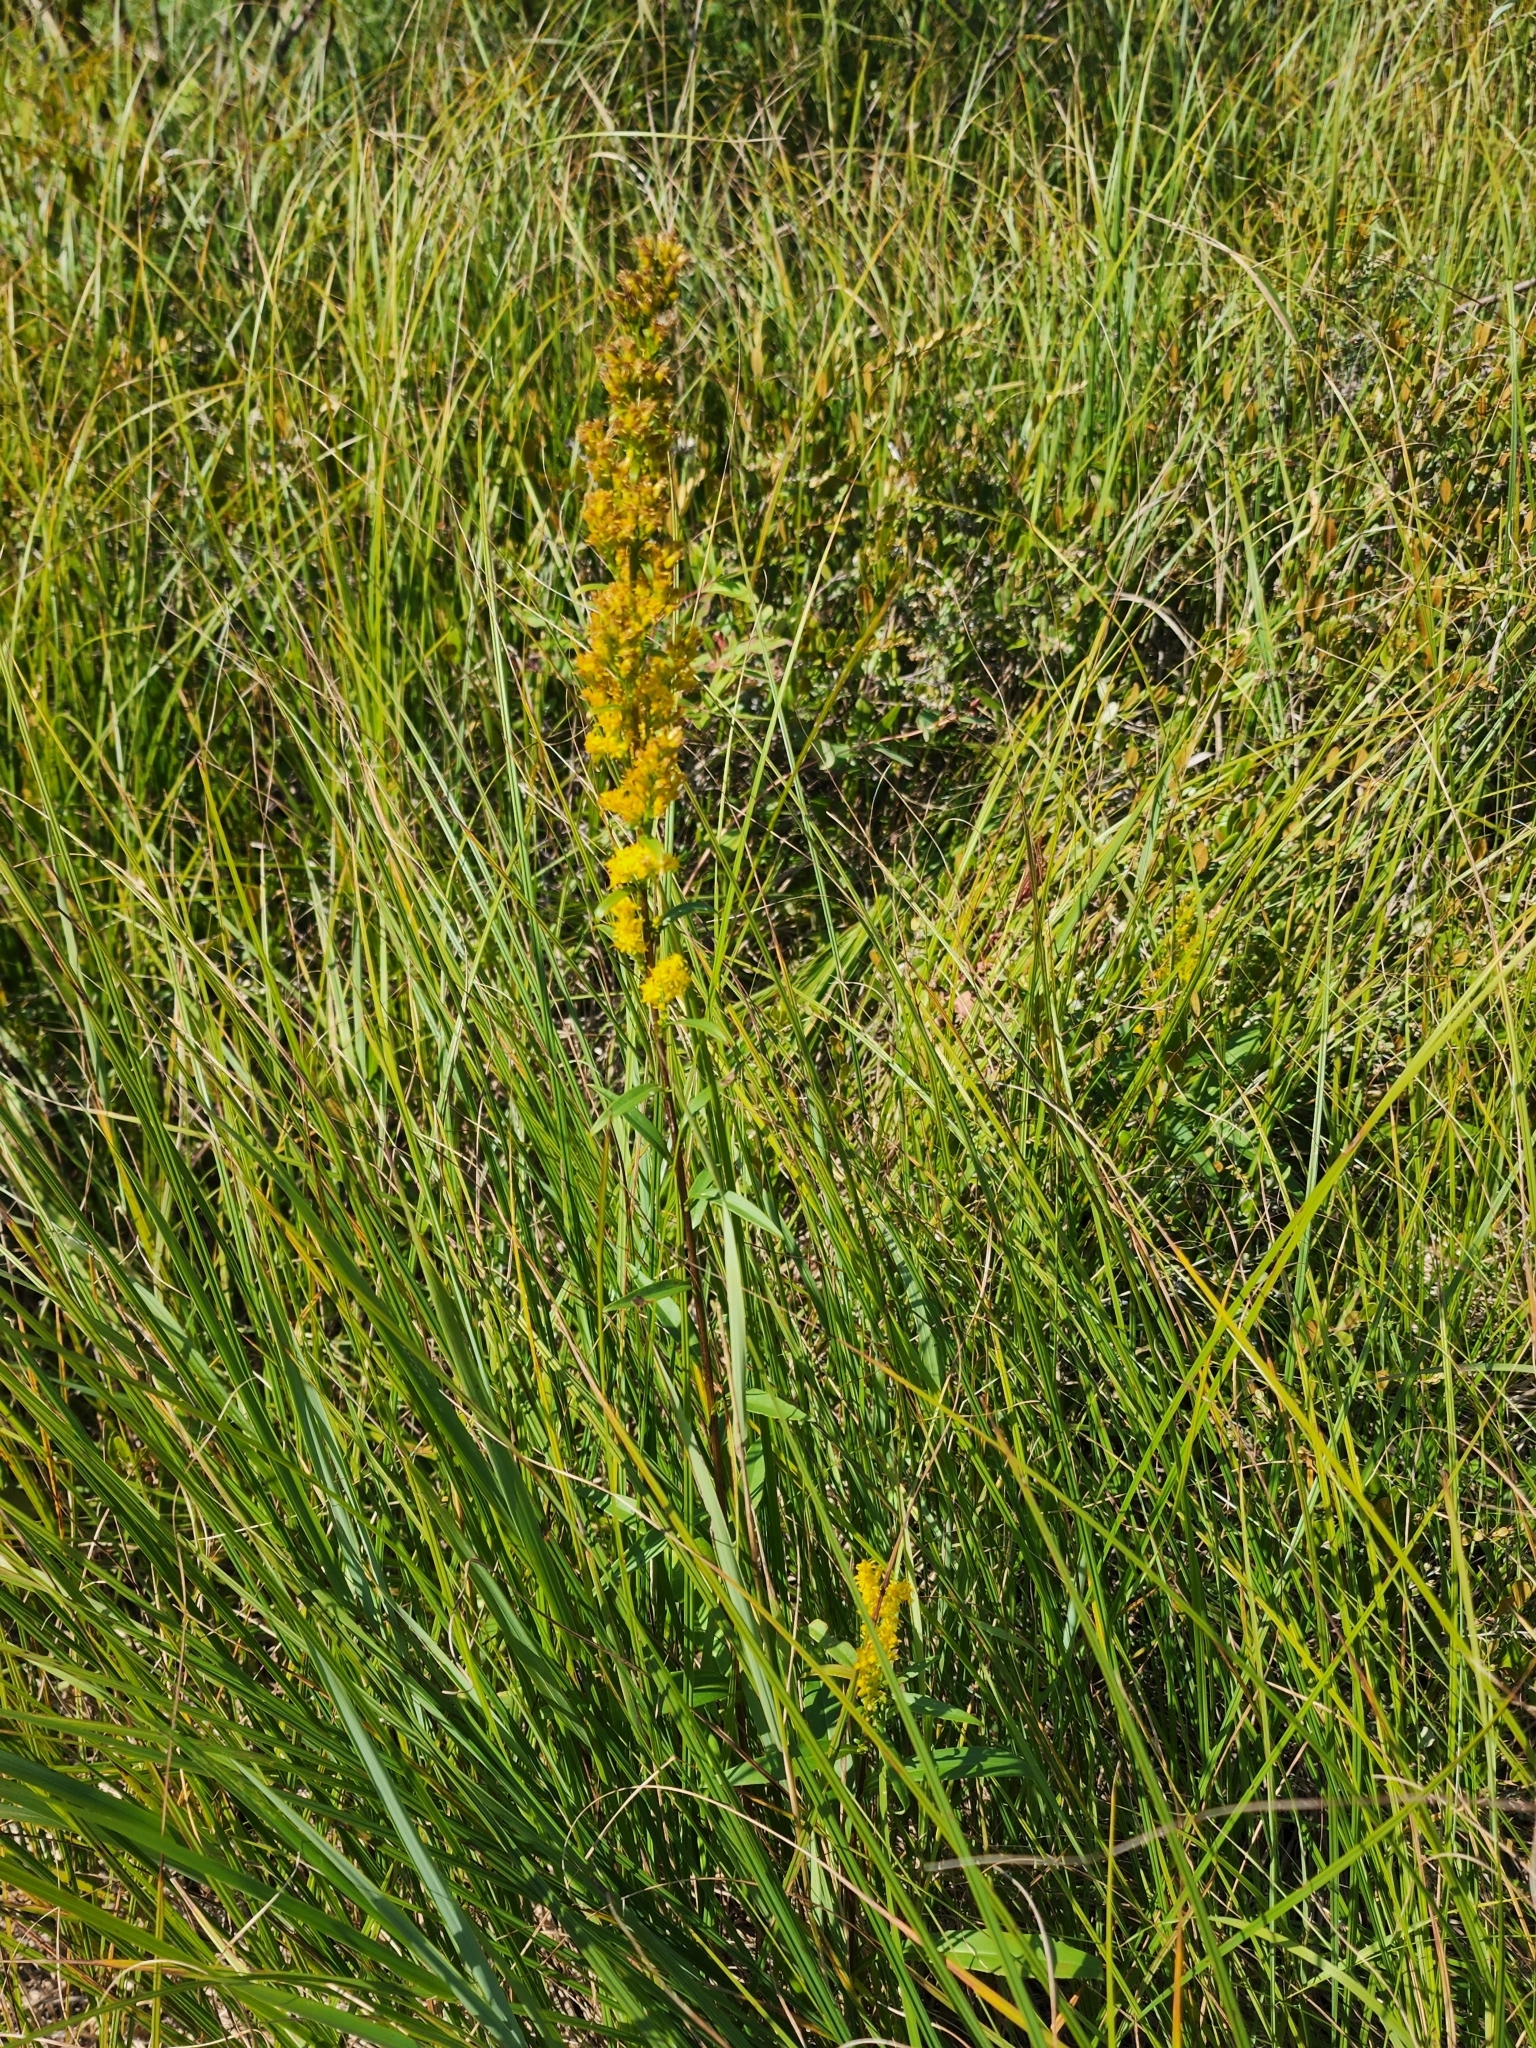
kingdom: Plantae
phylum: Tracheophyta
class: Magnoliopsida
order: Asterales
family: Asteraceae
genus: Solidago
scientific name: Solidago uliginosa
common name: Bog goldenrod
